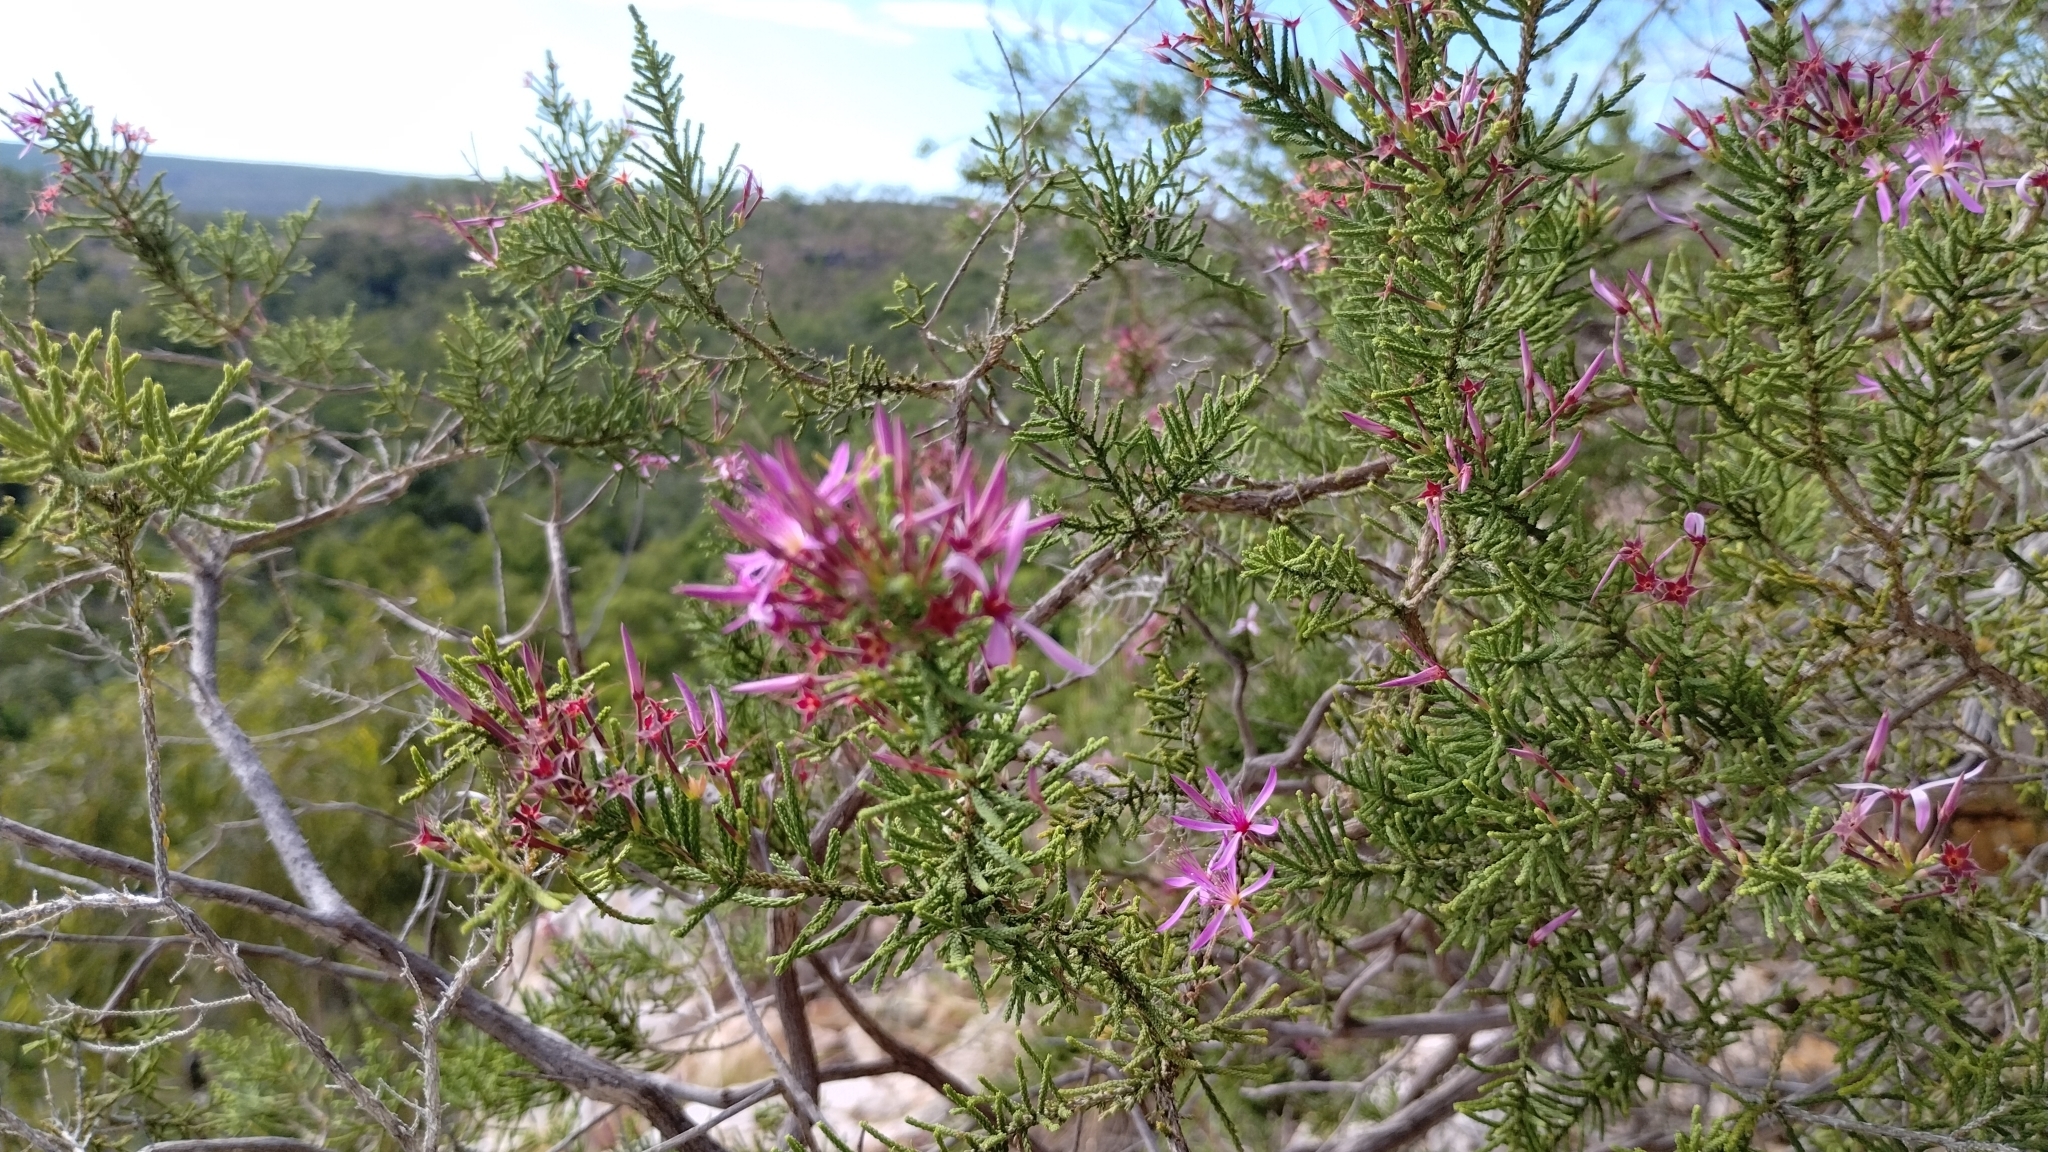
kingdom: Plantae
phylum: Tracheophyta
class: Magnoliopsida
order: Myrtales
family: Myrtaceae
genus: Calytrix
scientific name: Calytrix exstipulata
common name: Kimberley heather
